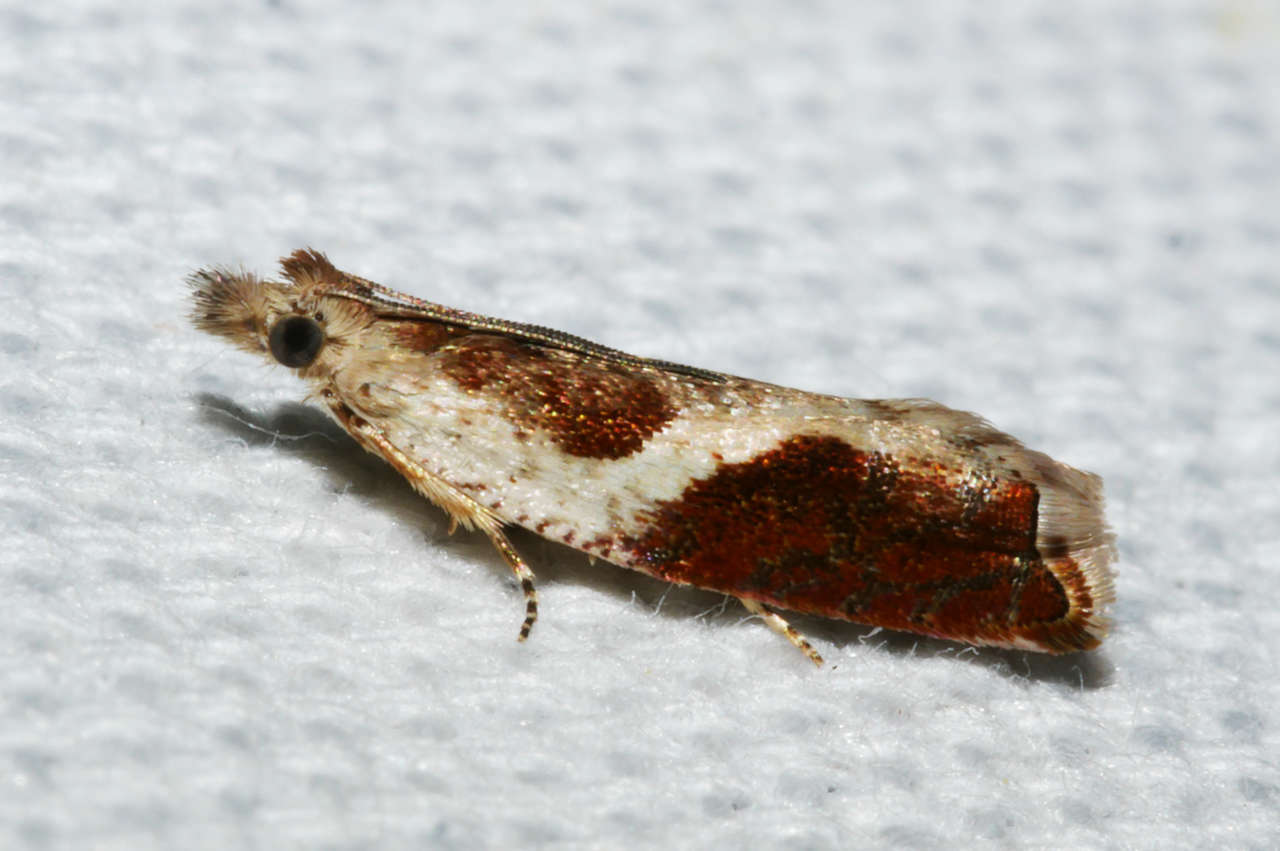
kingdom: Animalia
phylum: Arthropoda
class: Insecta
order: Lepidoptera
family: Tortricidae
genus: Ancylis
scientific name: Ancylis phileris
